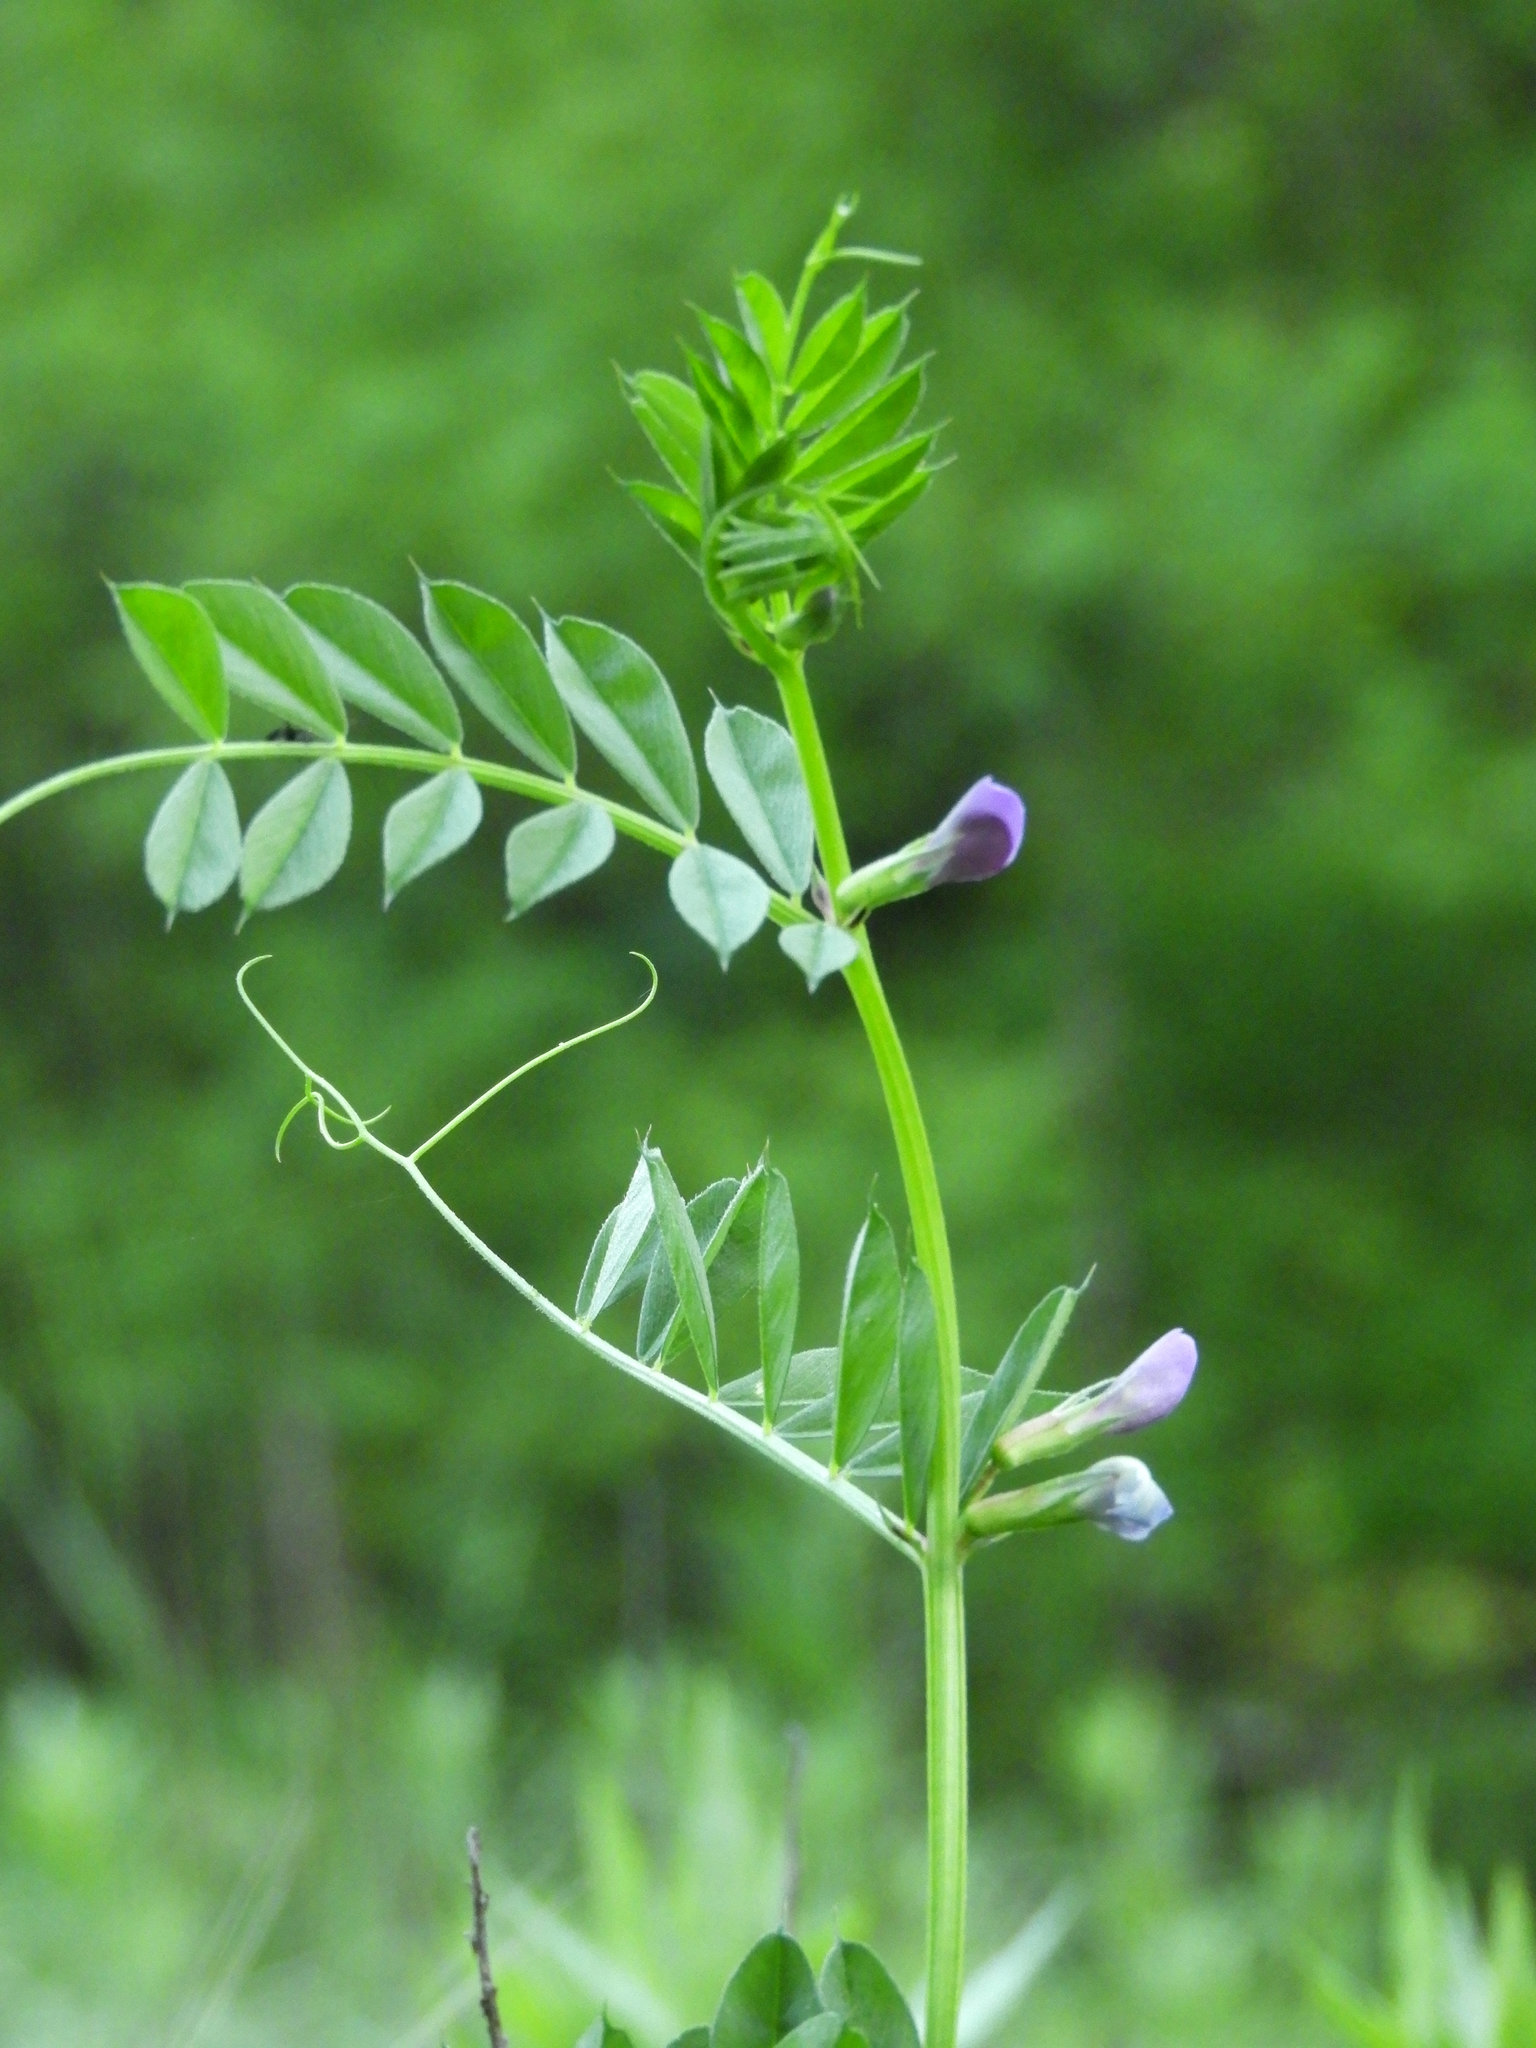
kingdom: Plantae
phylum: Tracheophyta
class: Magnoliopsida
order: Fabales
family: Fabaceae
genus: Vicia
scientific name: Vicia sativa
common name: Garden vetch
